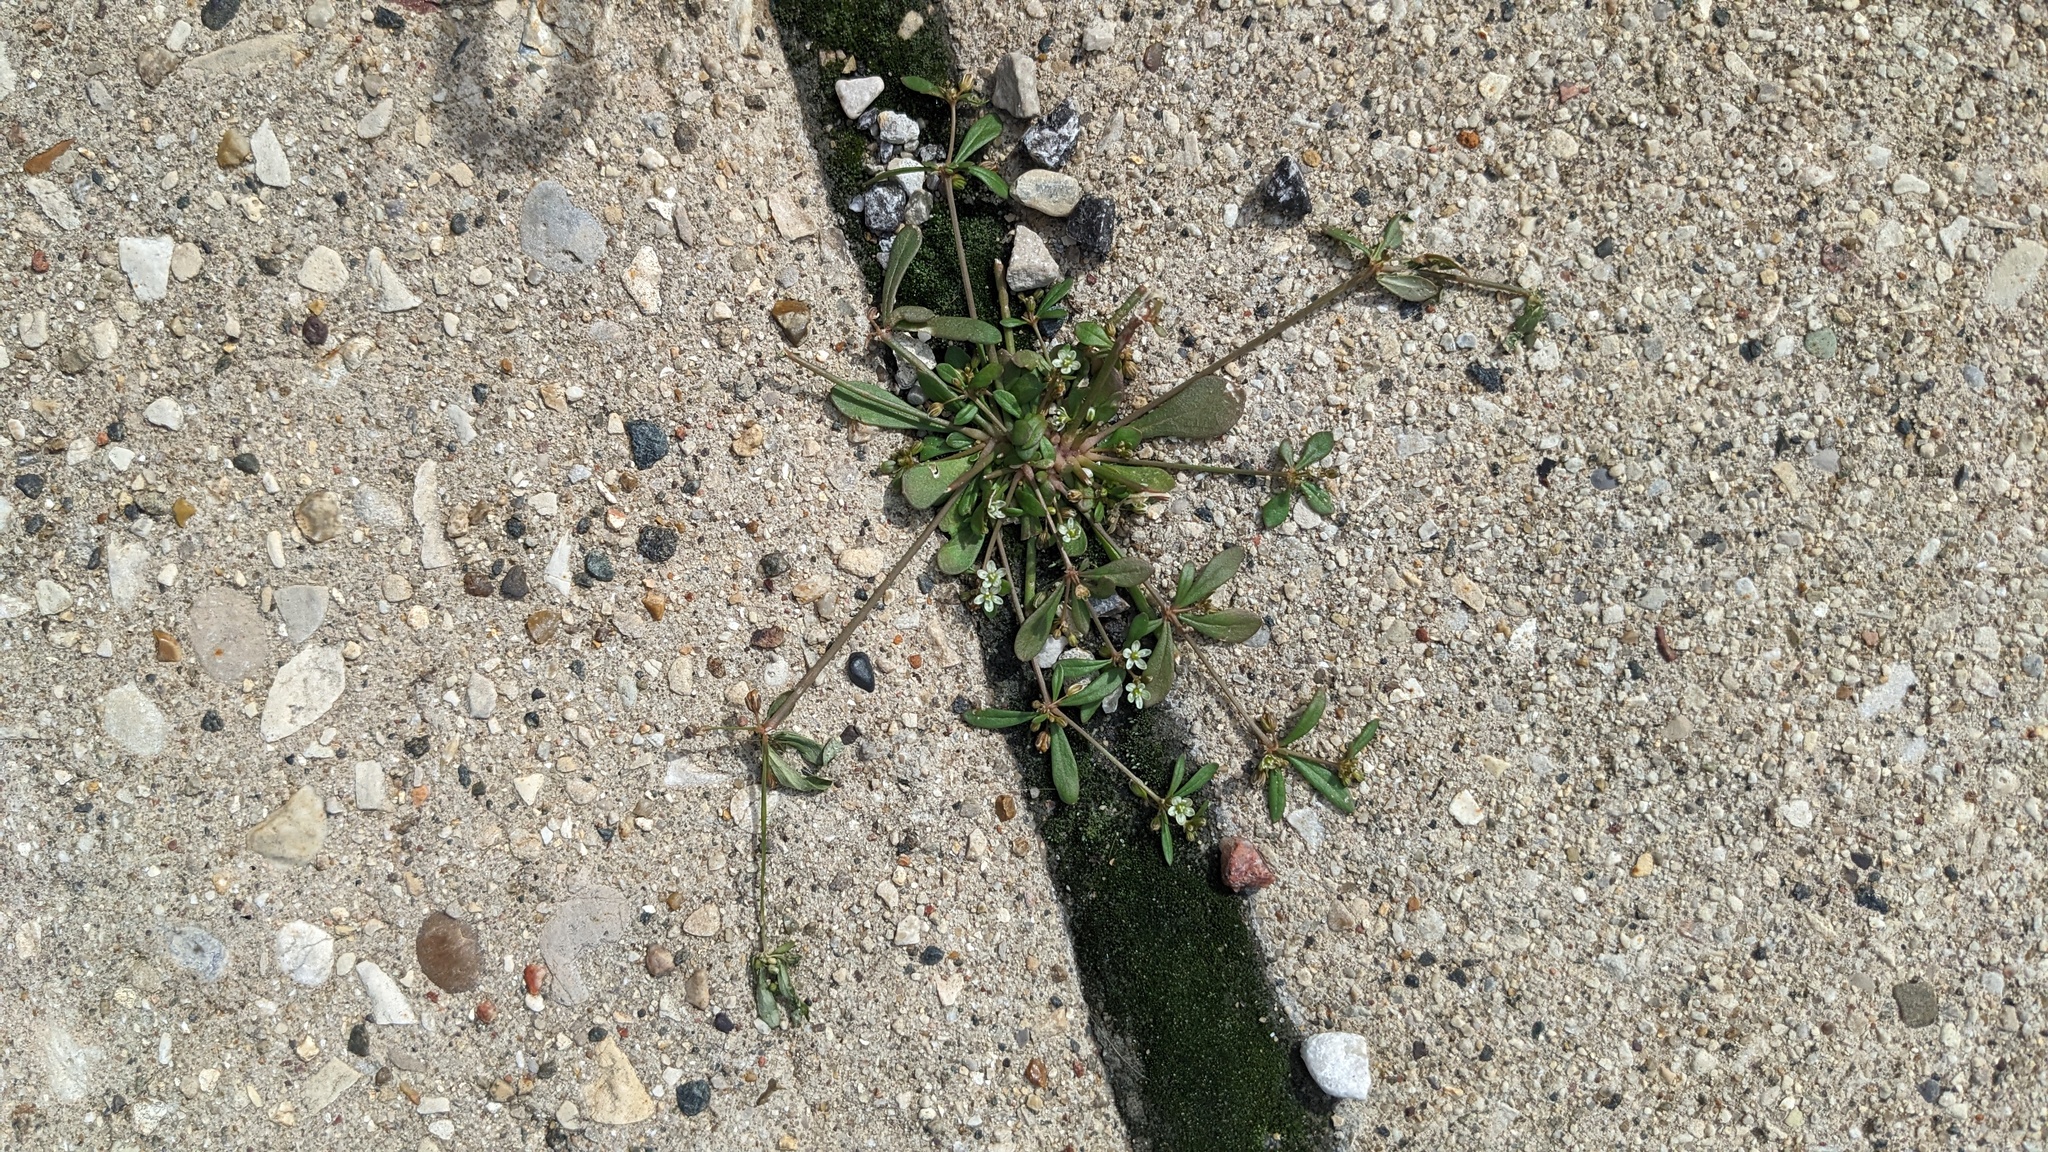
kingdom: Plantae
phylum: Tracheophyta
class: Magnoliopsida
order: Caryophyllales
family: Molluginaceae
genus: Mollugo
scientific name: Mollugo verticillata
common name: Green carpetweed
